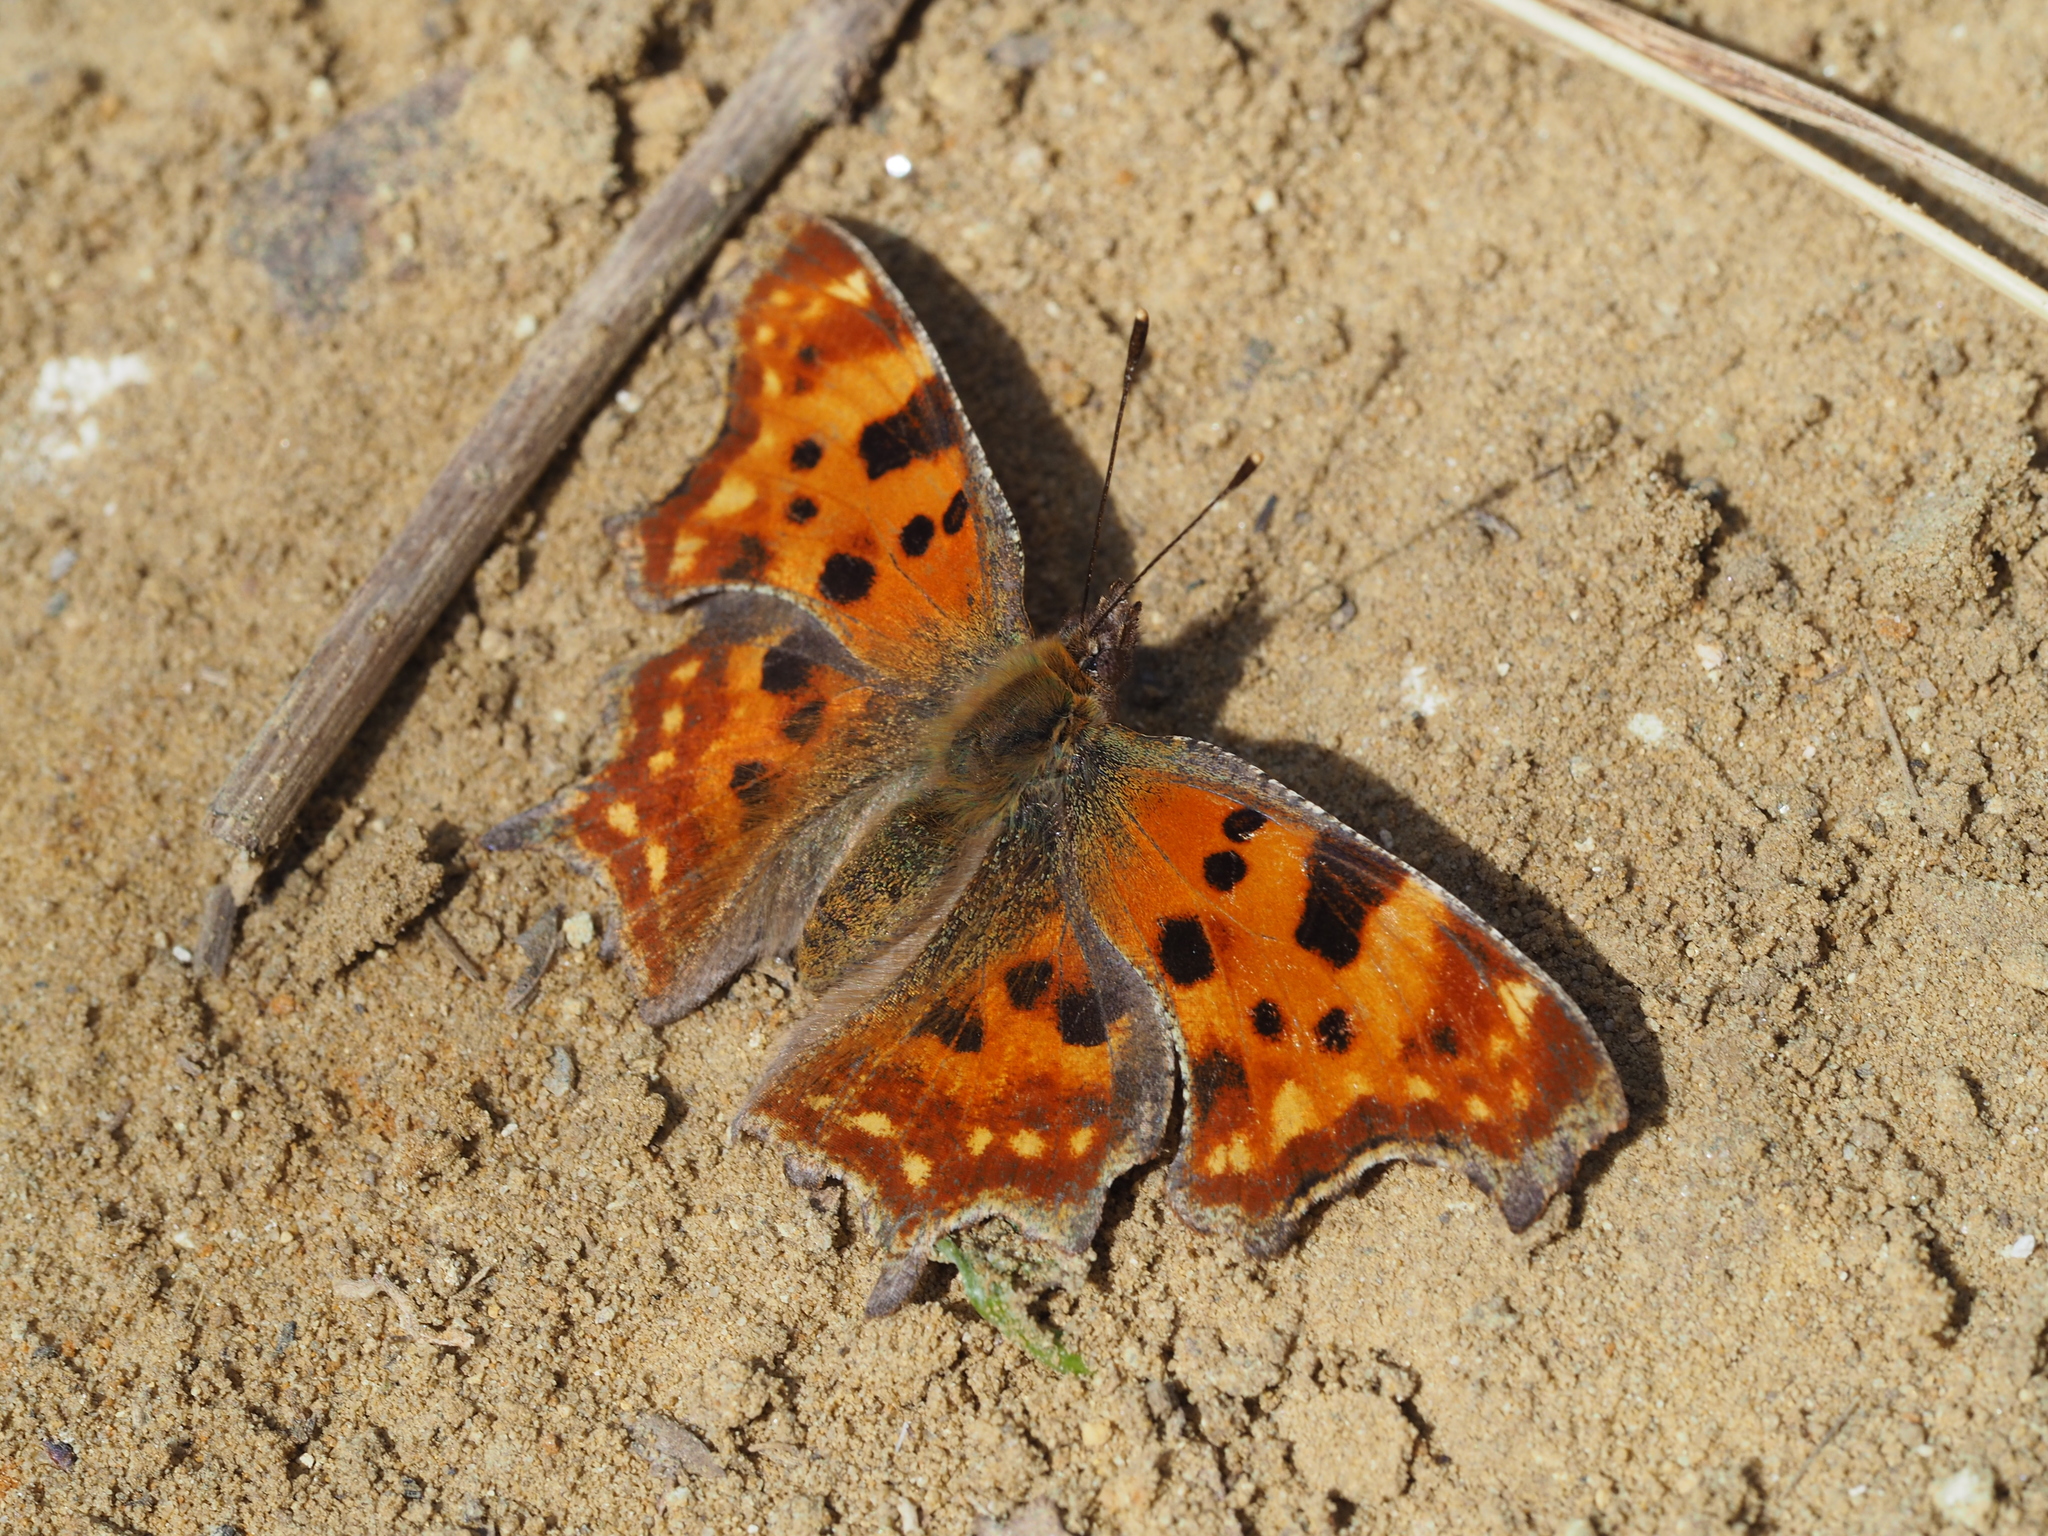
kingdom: Animalia
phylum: Arthropoda
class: Insecta
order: Lepidoptera
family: Nymphalidae
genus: Polygonia
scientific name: Polygonia c-album
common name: Comma
